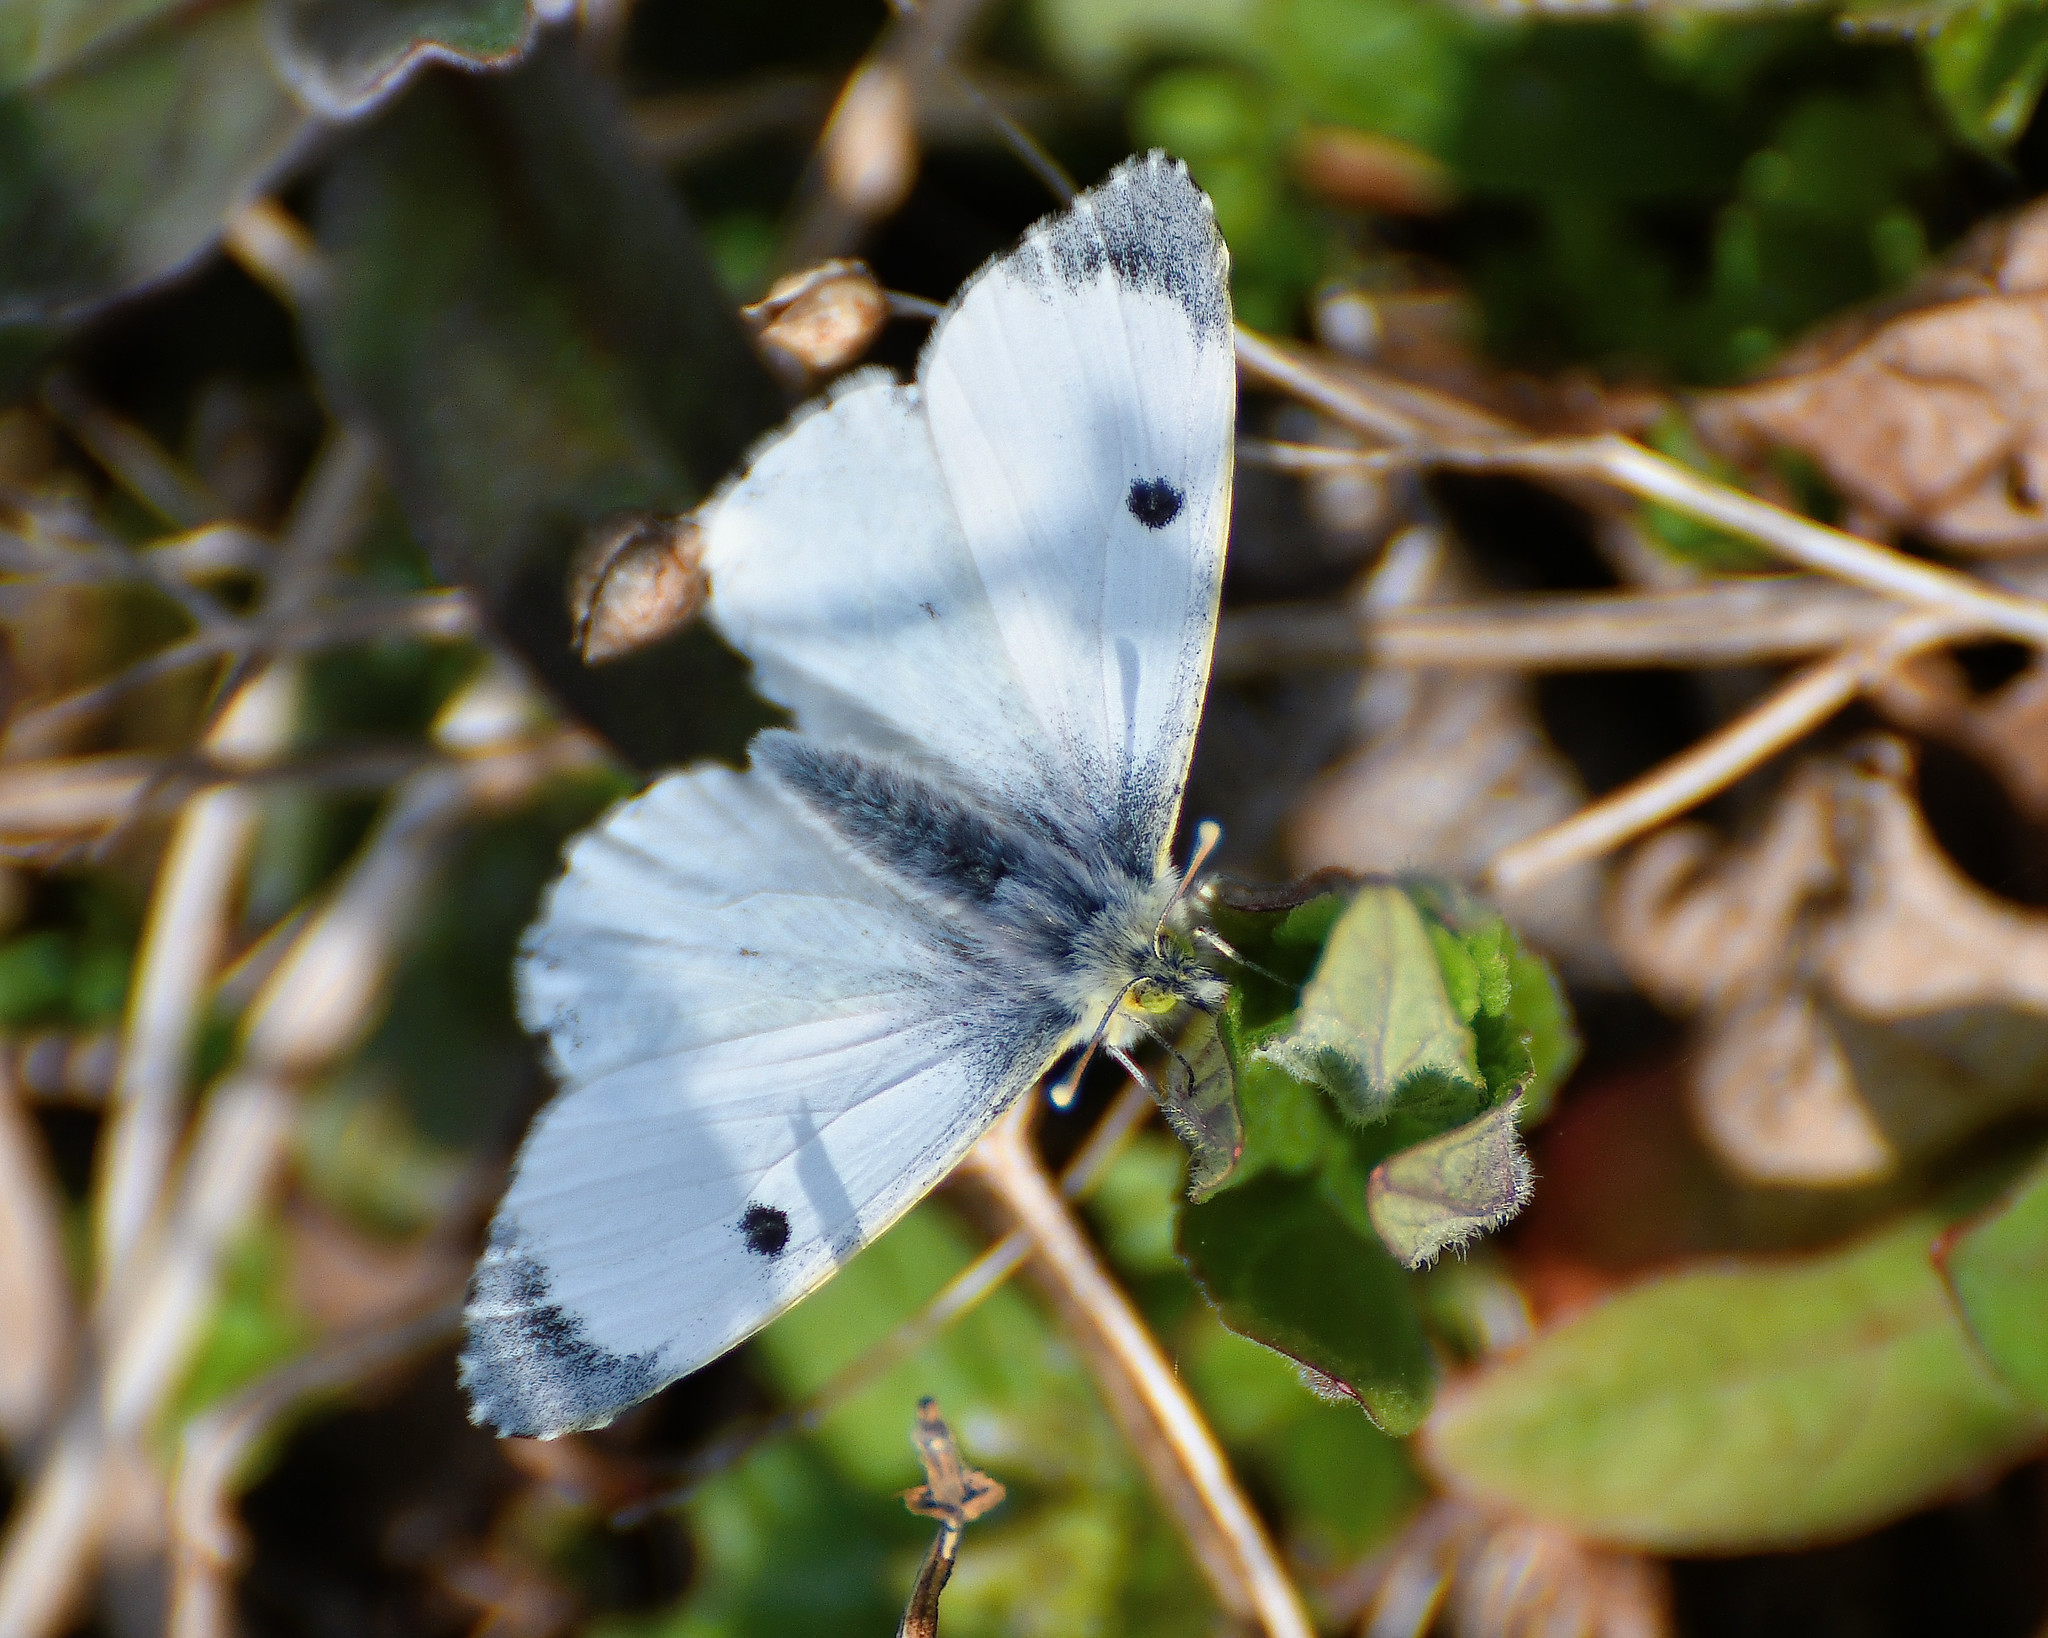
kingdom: Animalia
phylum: Arthropoda
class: Insecta
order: Lepidoptera
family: Pieridae
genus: Anthocharis
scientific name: Anthocharis cardamines
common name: Orange-tip
